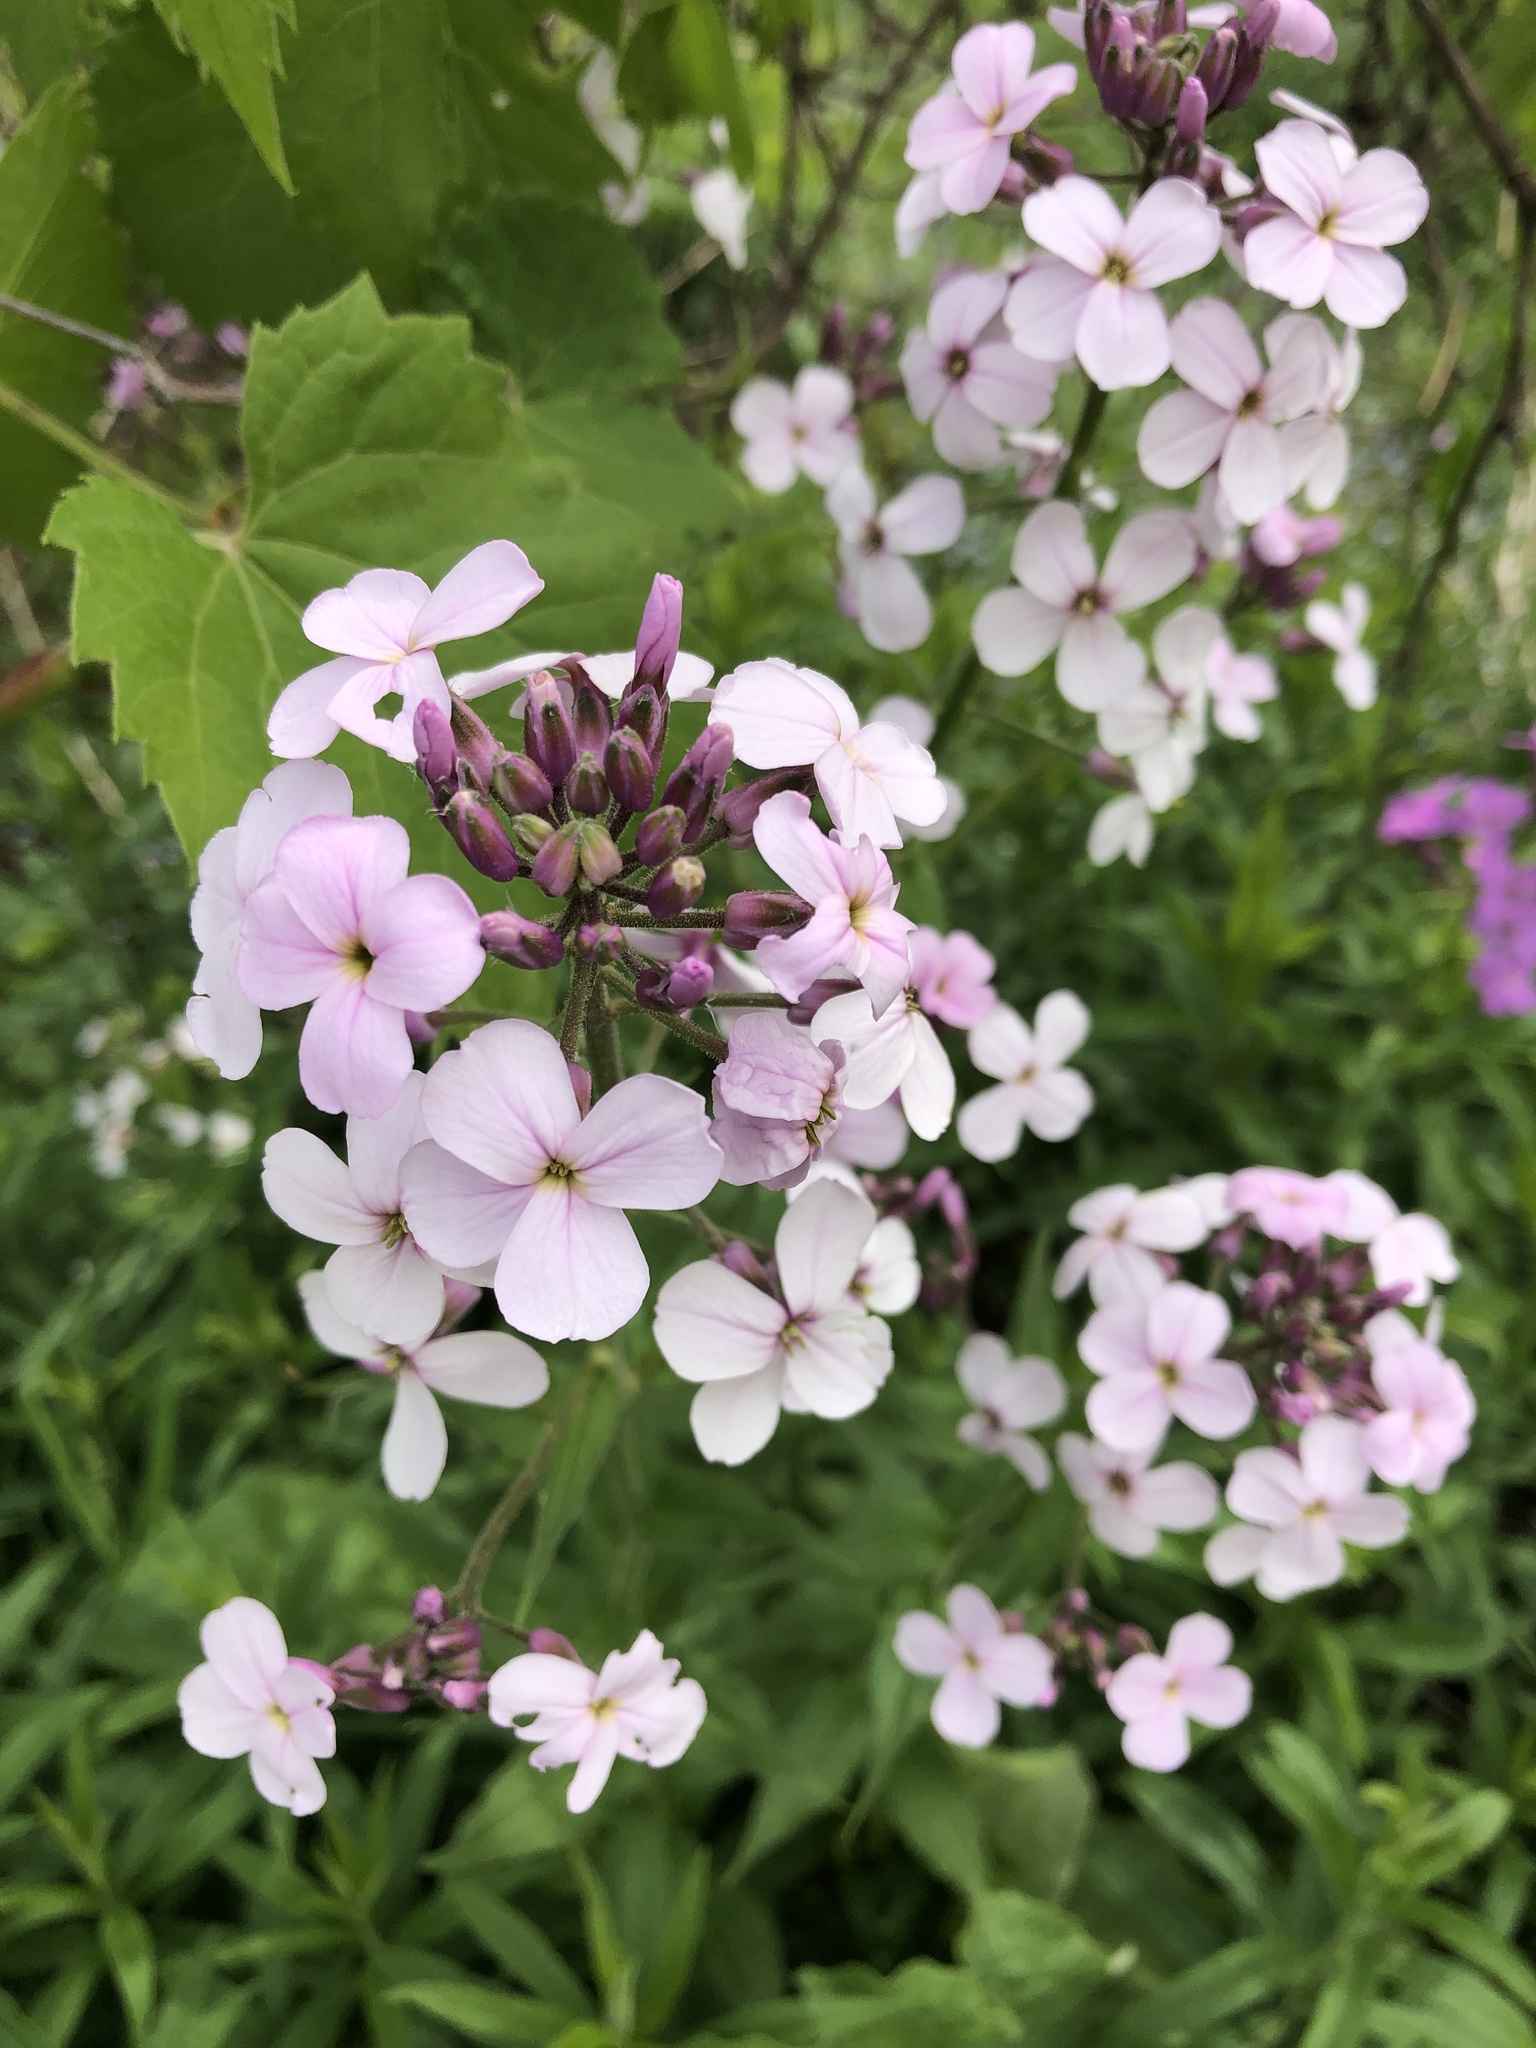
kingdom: Plantae
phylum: Tracheophyta
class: Magnoliopsida
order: Brassicales
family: Brassicaceae
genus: Hesperis
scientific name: Hesperis matronalis
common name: Dame's-violet
